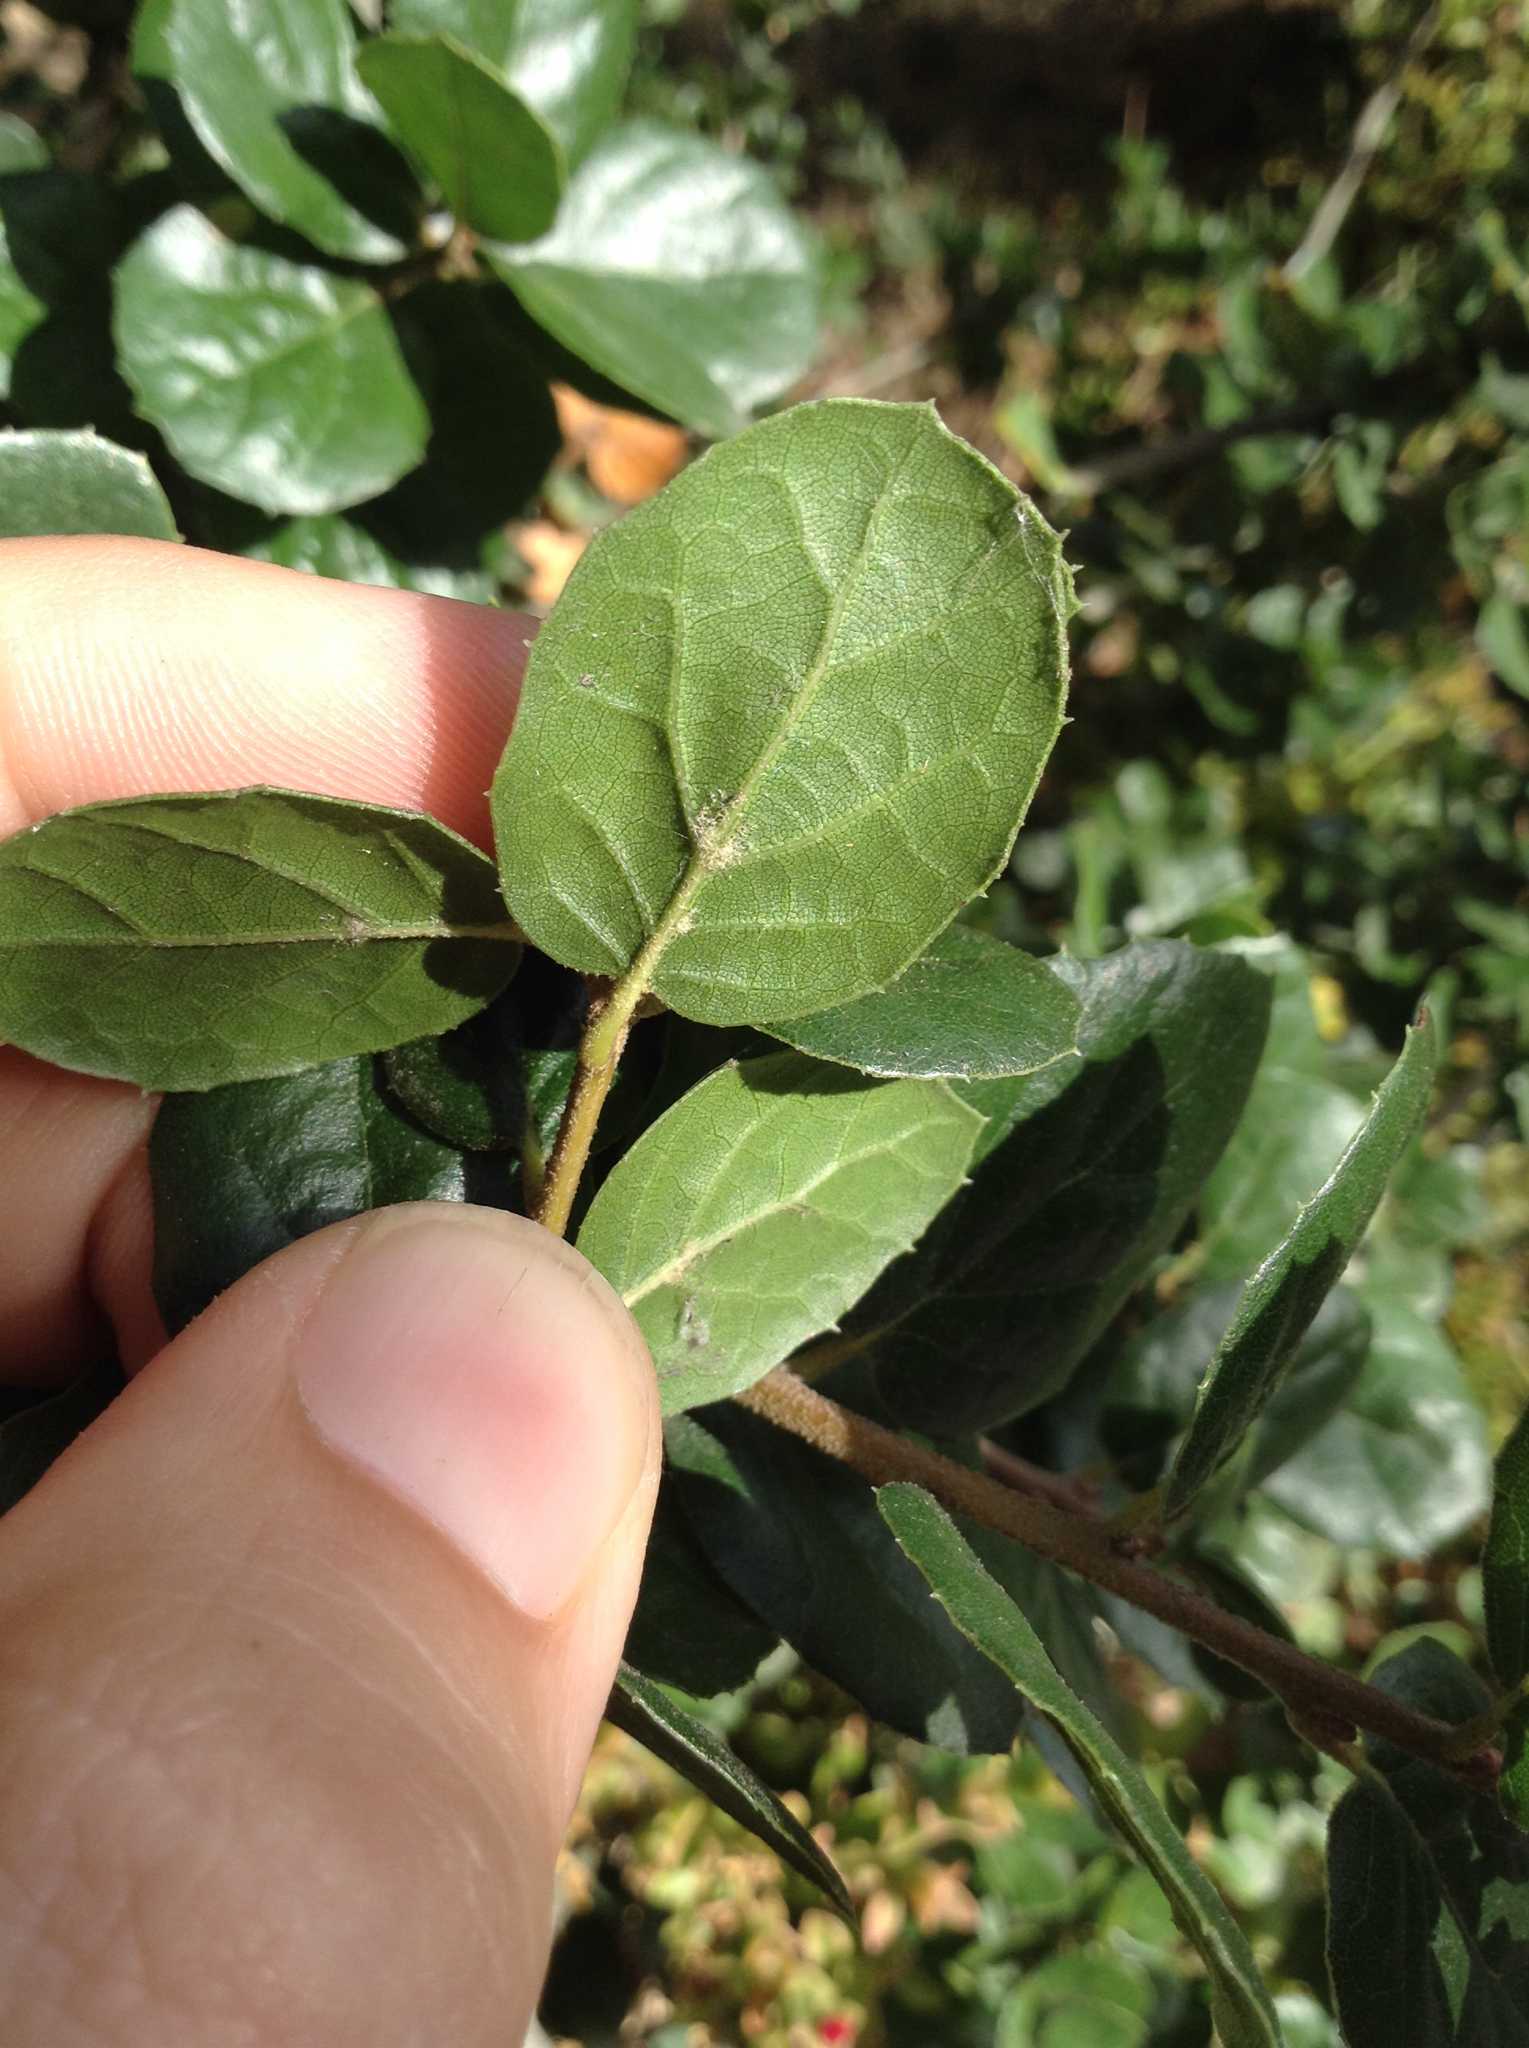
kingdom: Plantae
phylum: Tracheophyta
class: Magnoliopsida
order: Fagales
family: Fagaceae
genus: Quercus
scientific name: Quercus agrifolia
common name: California live oak
